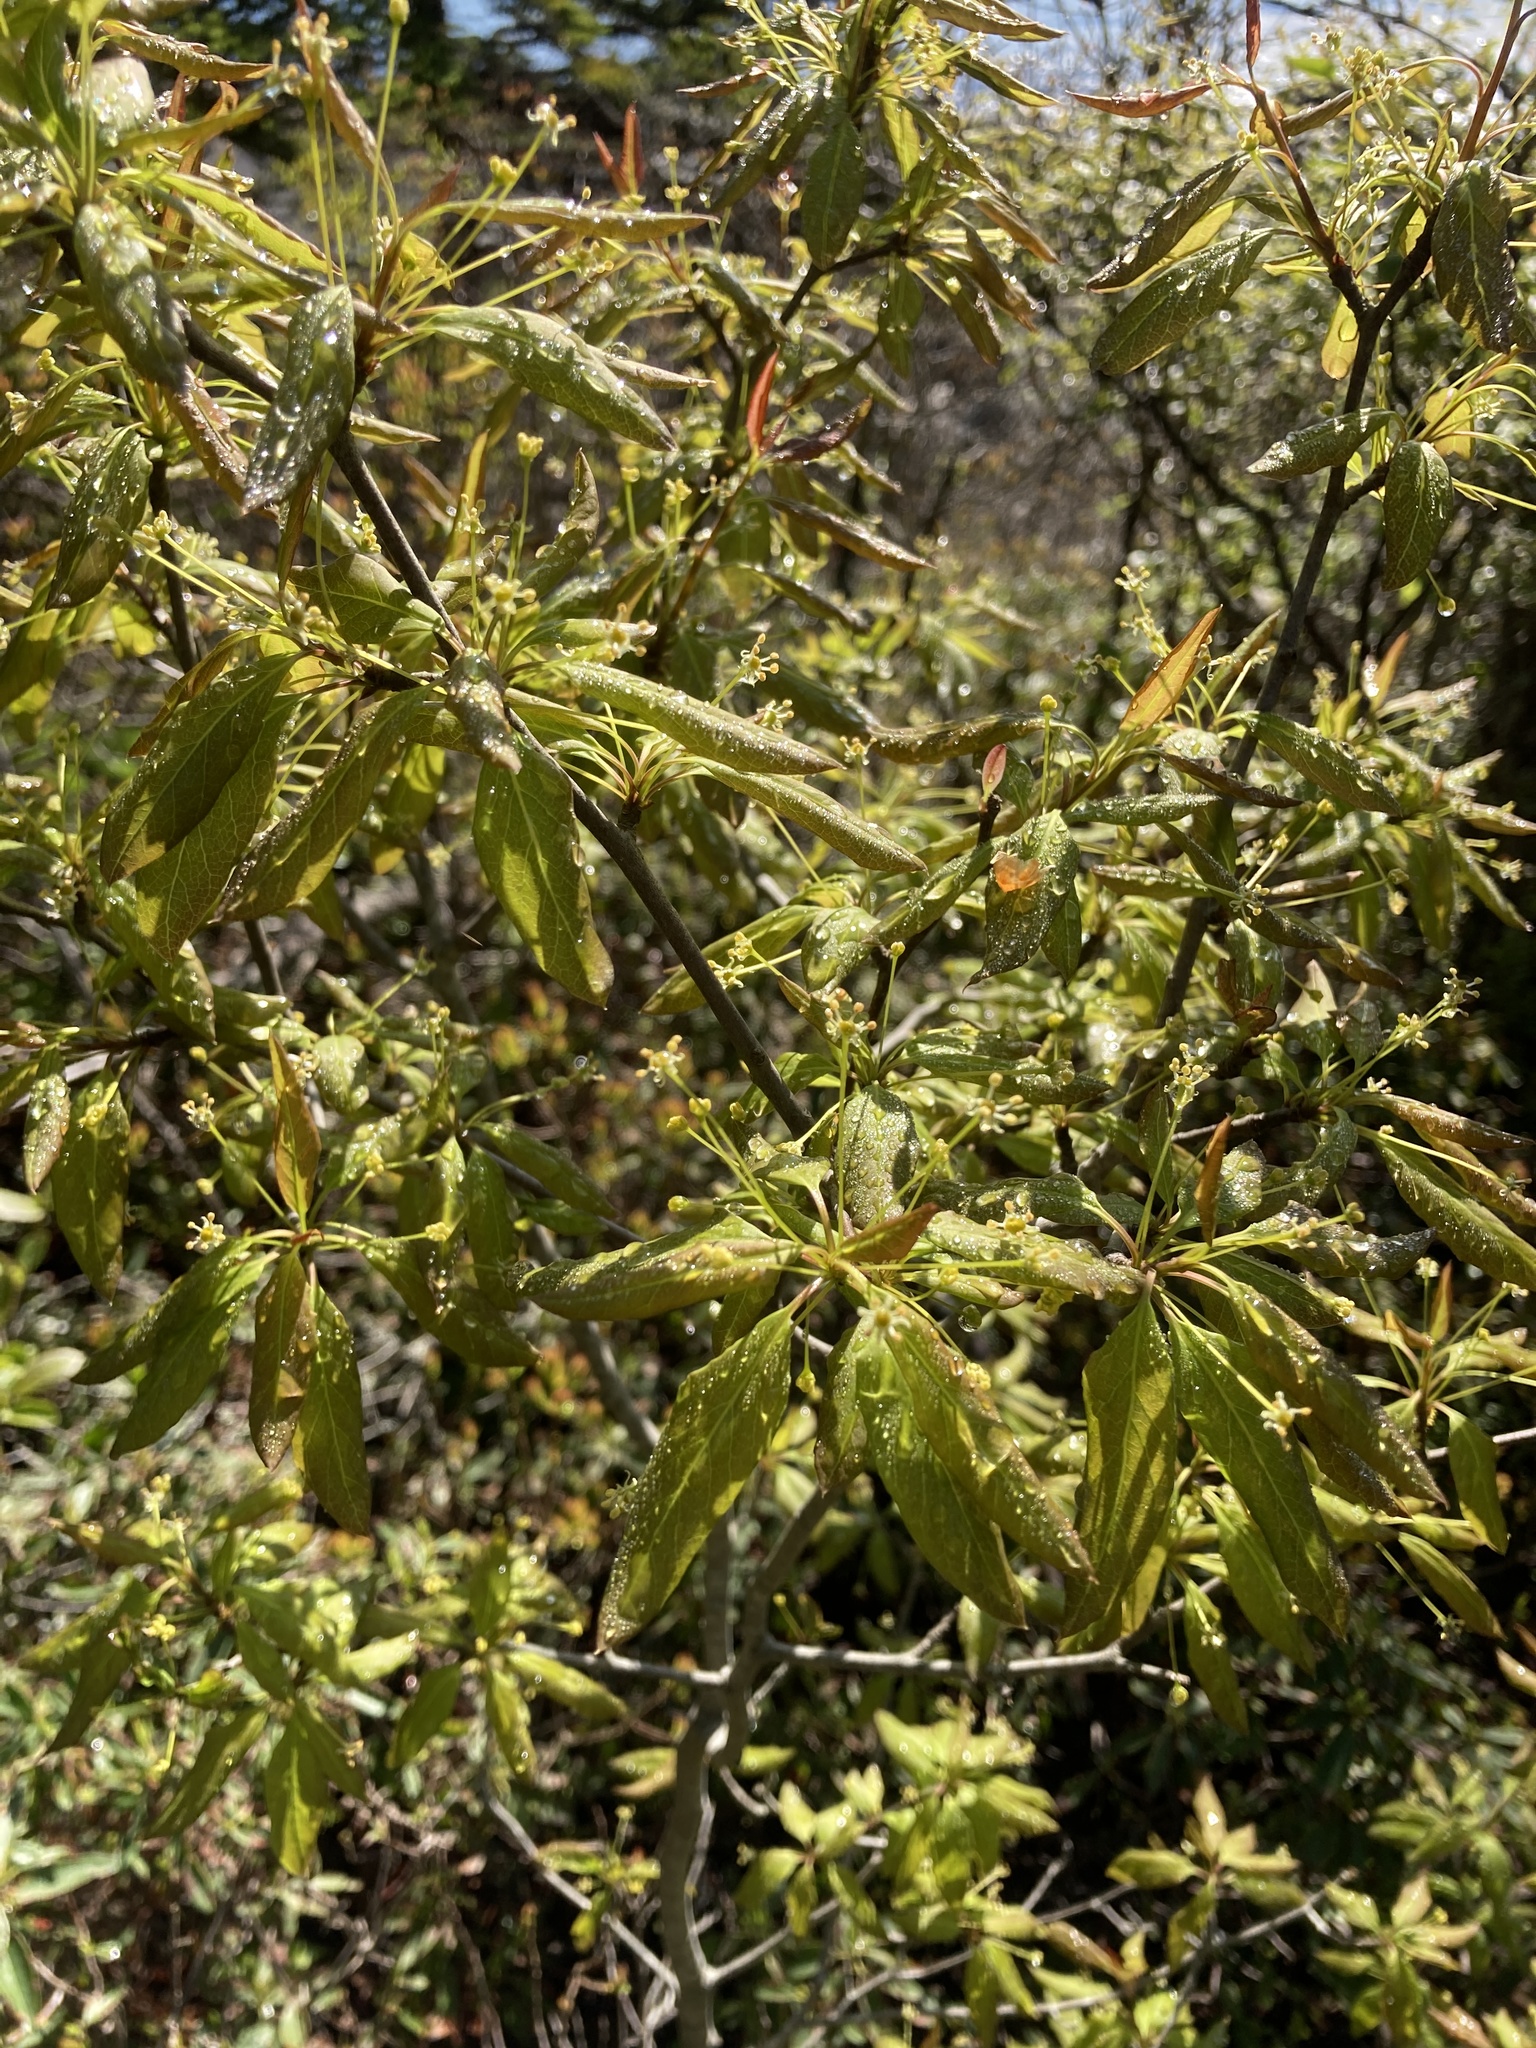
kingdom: Plantae
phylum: Tracheophyta
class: Magnoliopsida
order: Aquifoliales
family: Aquifoliaceae
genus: Ilex
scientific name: Ilex mucronata
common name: Catberry
